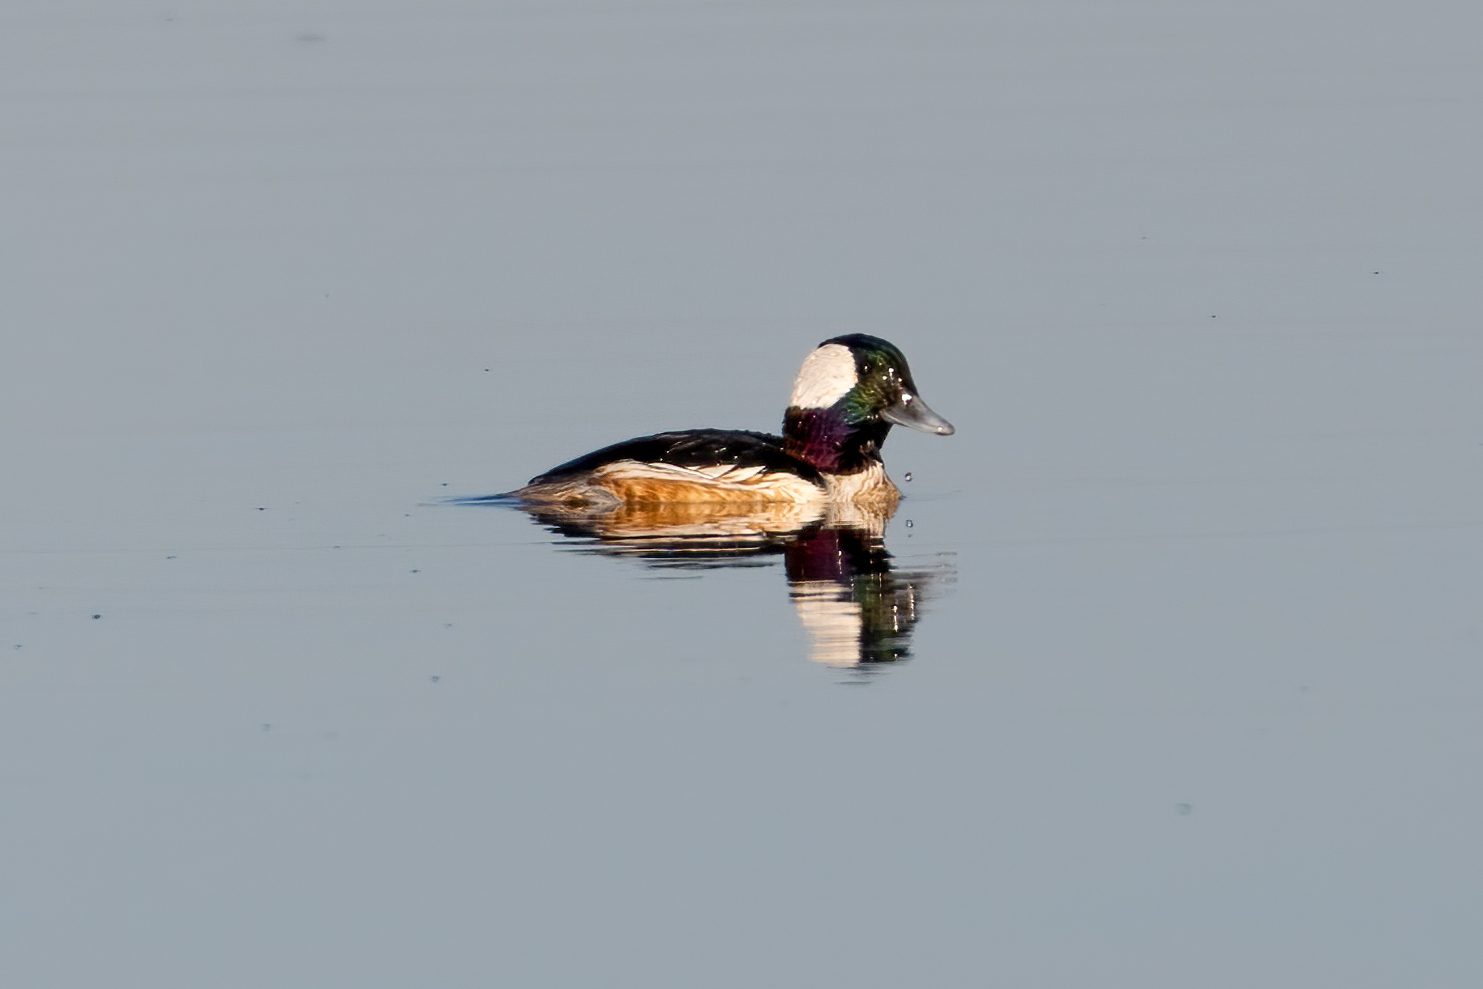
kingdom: Animalia
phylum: Chordata
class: Aves
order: Anseriformes
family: Anatidae
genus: Bucephala
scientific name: Bucephala albeola
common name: Bufflehead
